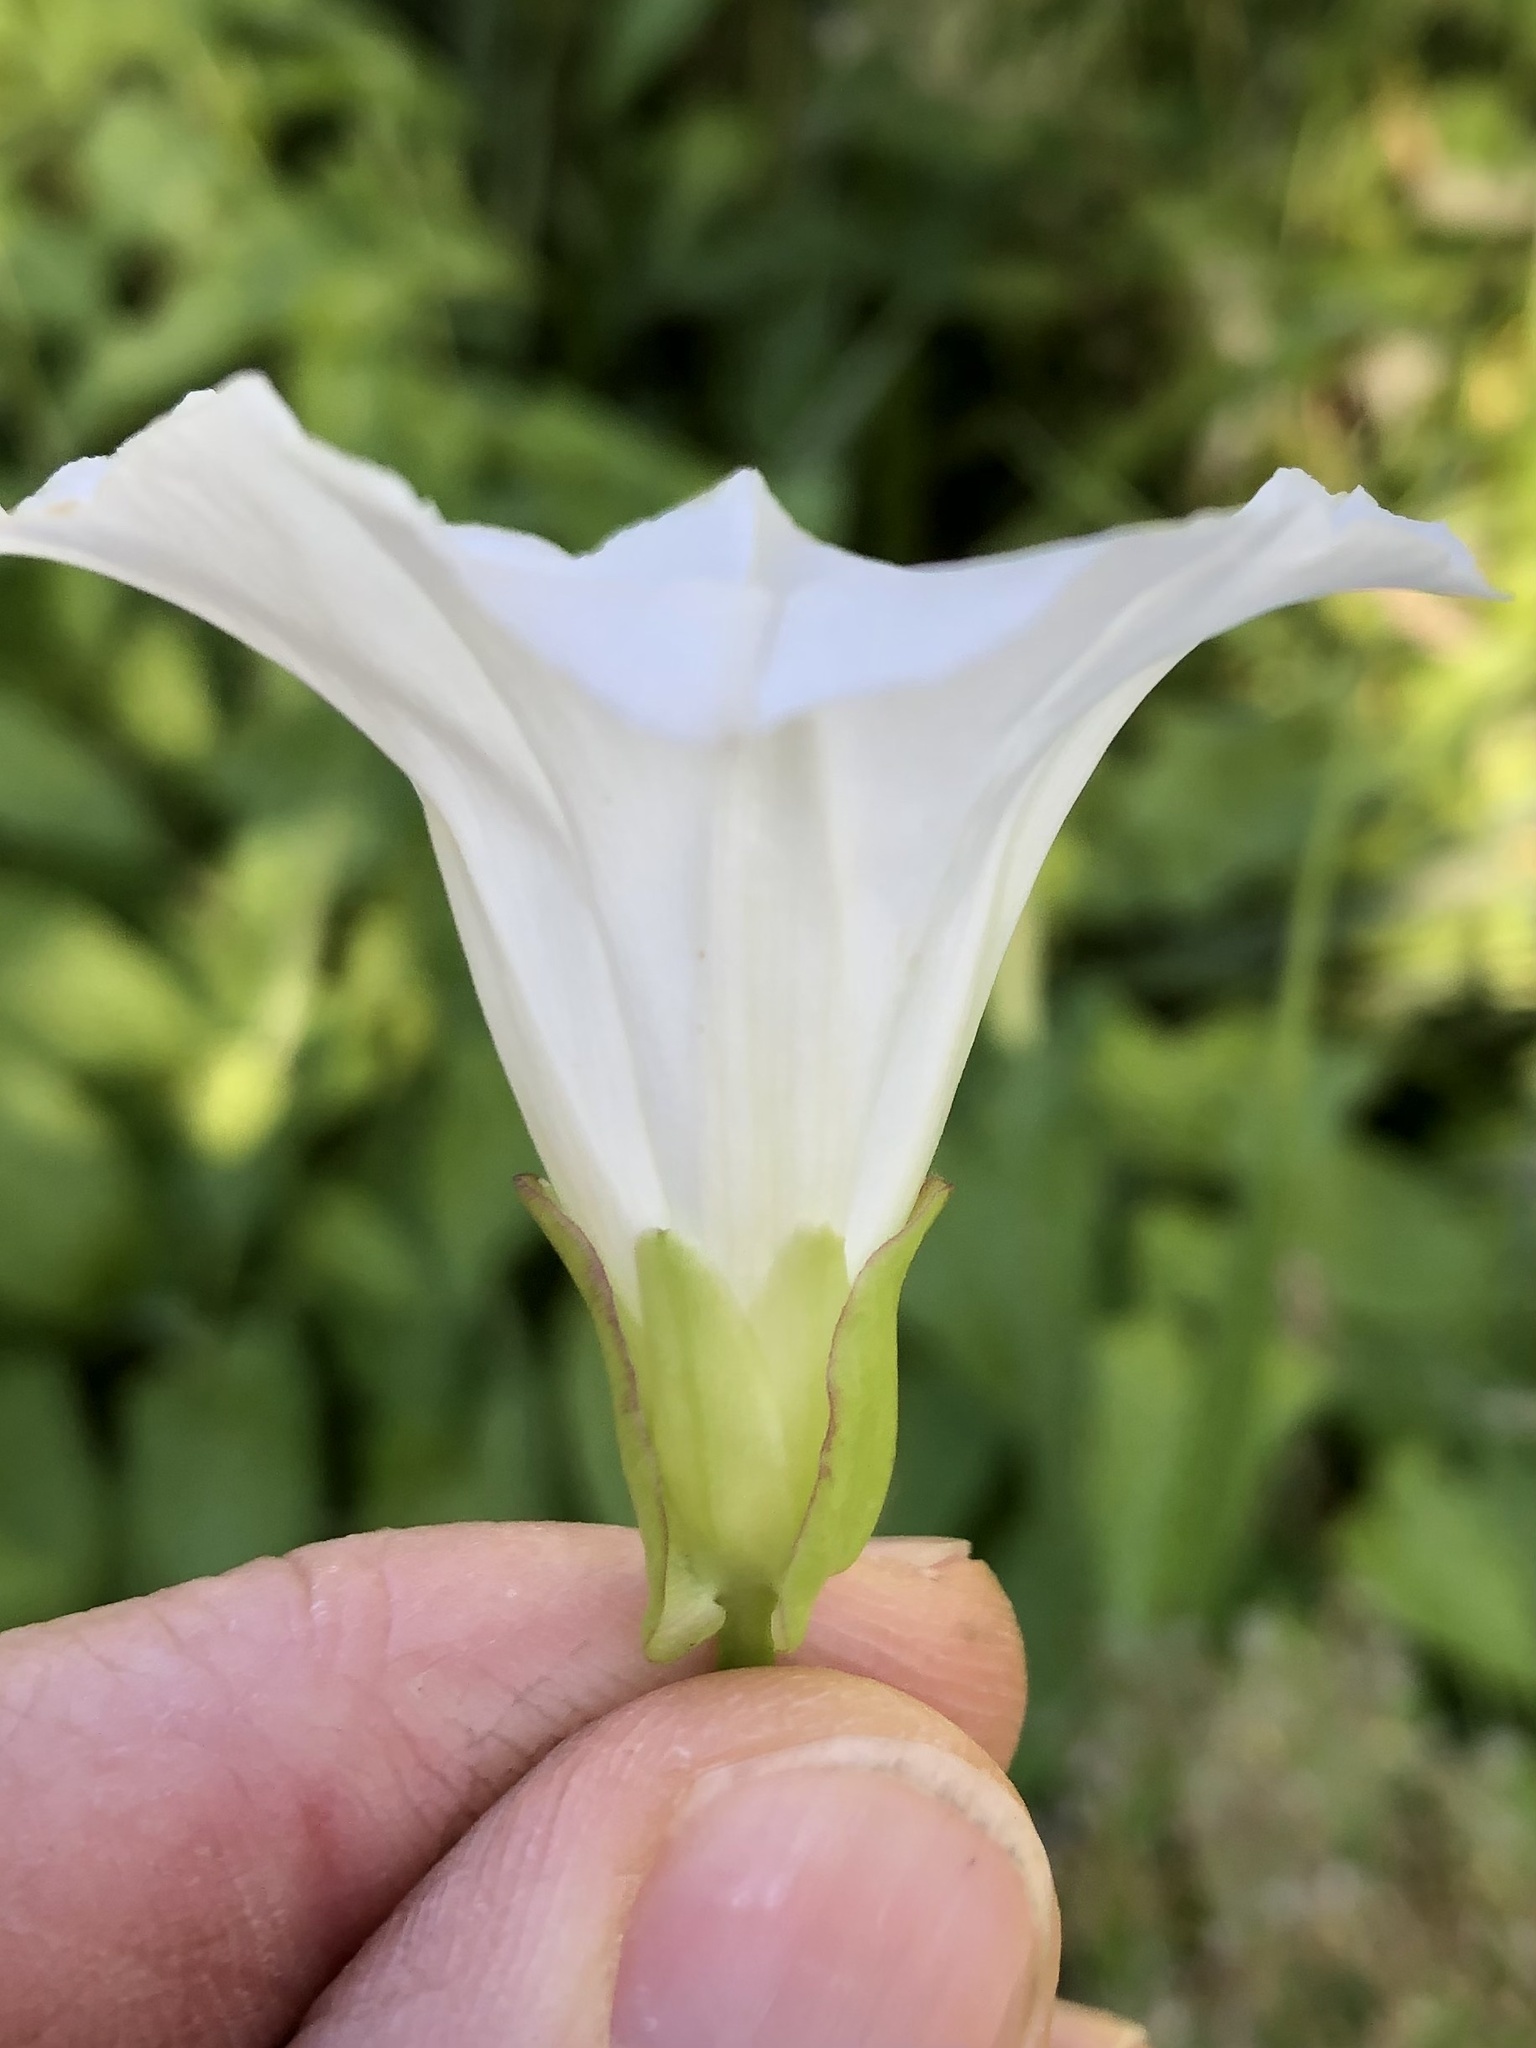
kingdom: Plantae
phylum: Tracheophyta
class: Magnoliopsida
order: Solanales
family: Convolvulaceae
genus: Calystegia
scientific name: Calystegia sepium
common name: Hedge bindweed
